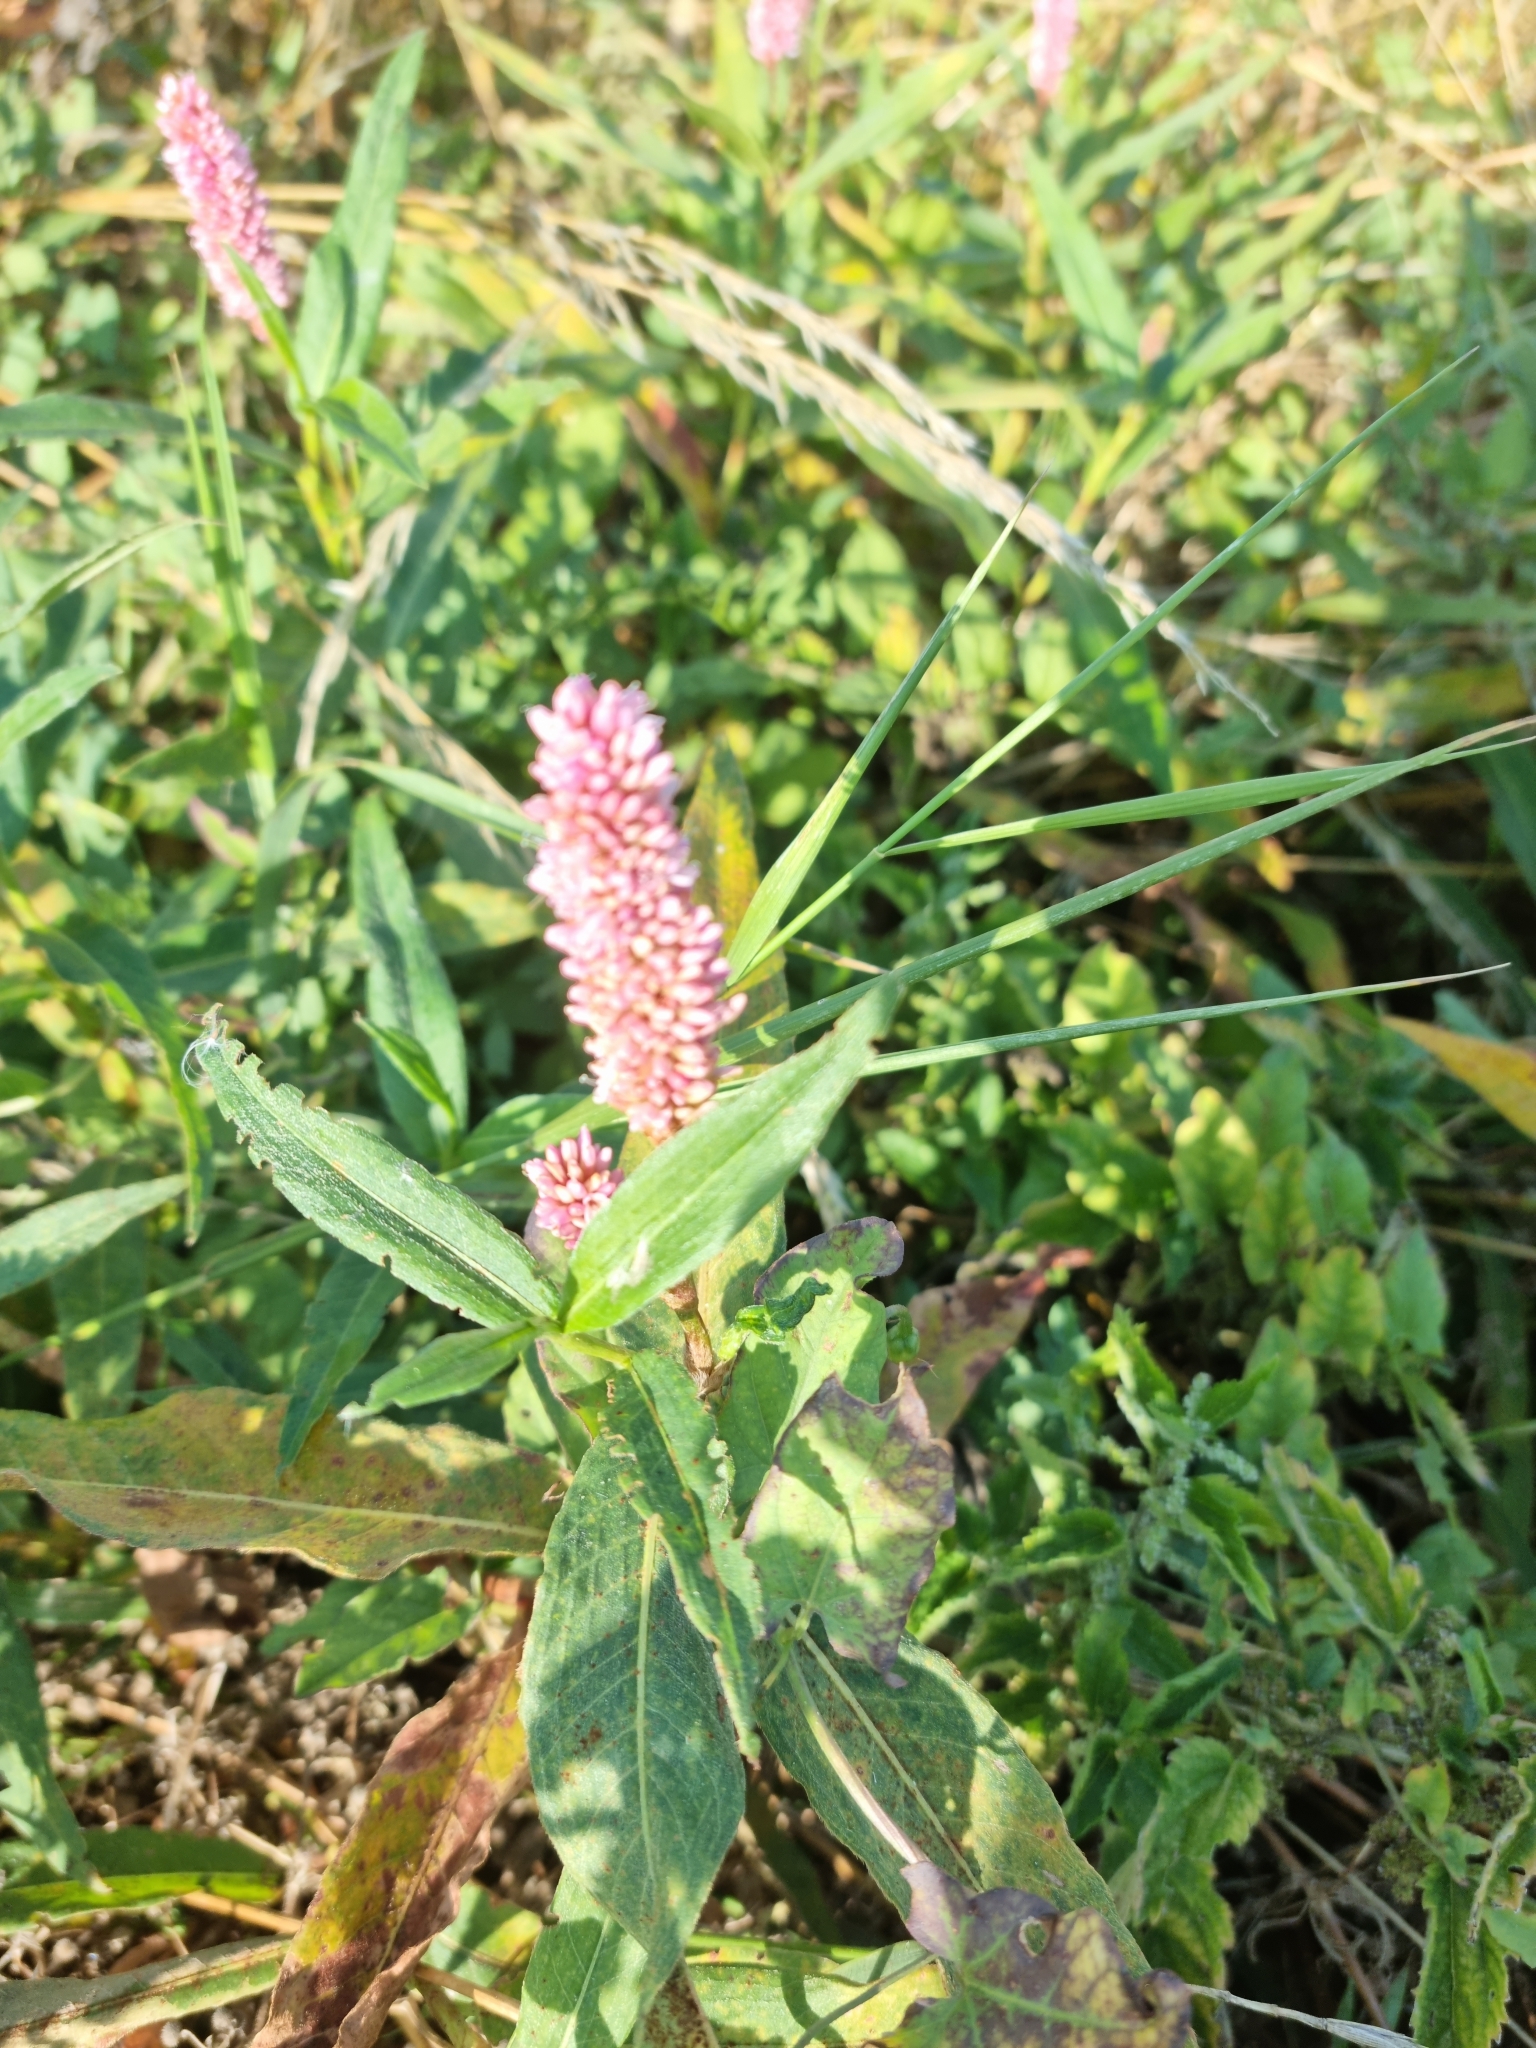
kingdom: Plantae
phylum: Tracheophyta
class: Magnoliopsida
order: Caryophyllales
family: Polygonaceae
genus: Persicaria
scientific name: Persicaria amphibia
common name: Amphibious bistort
